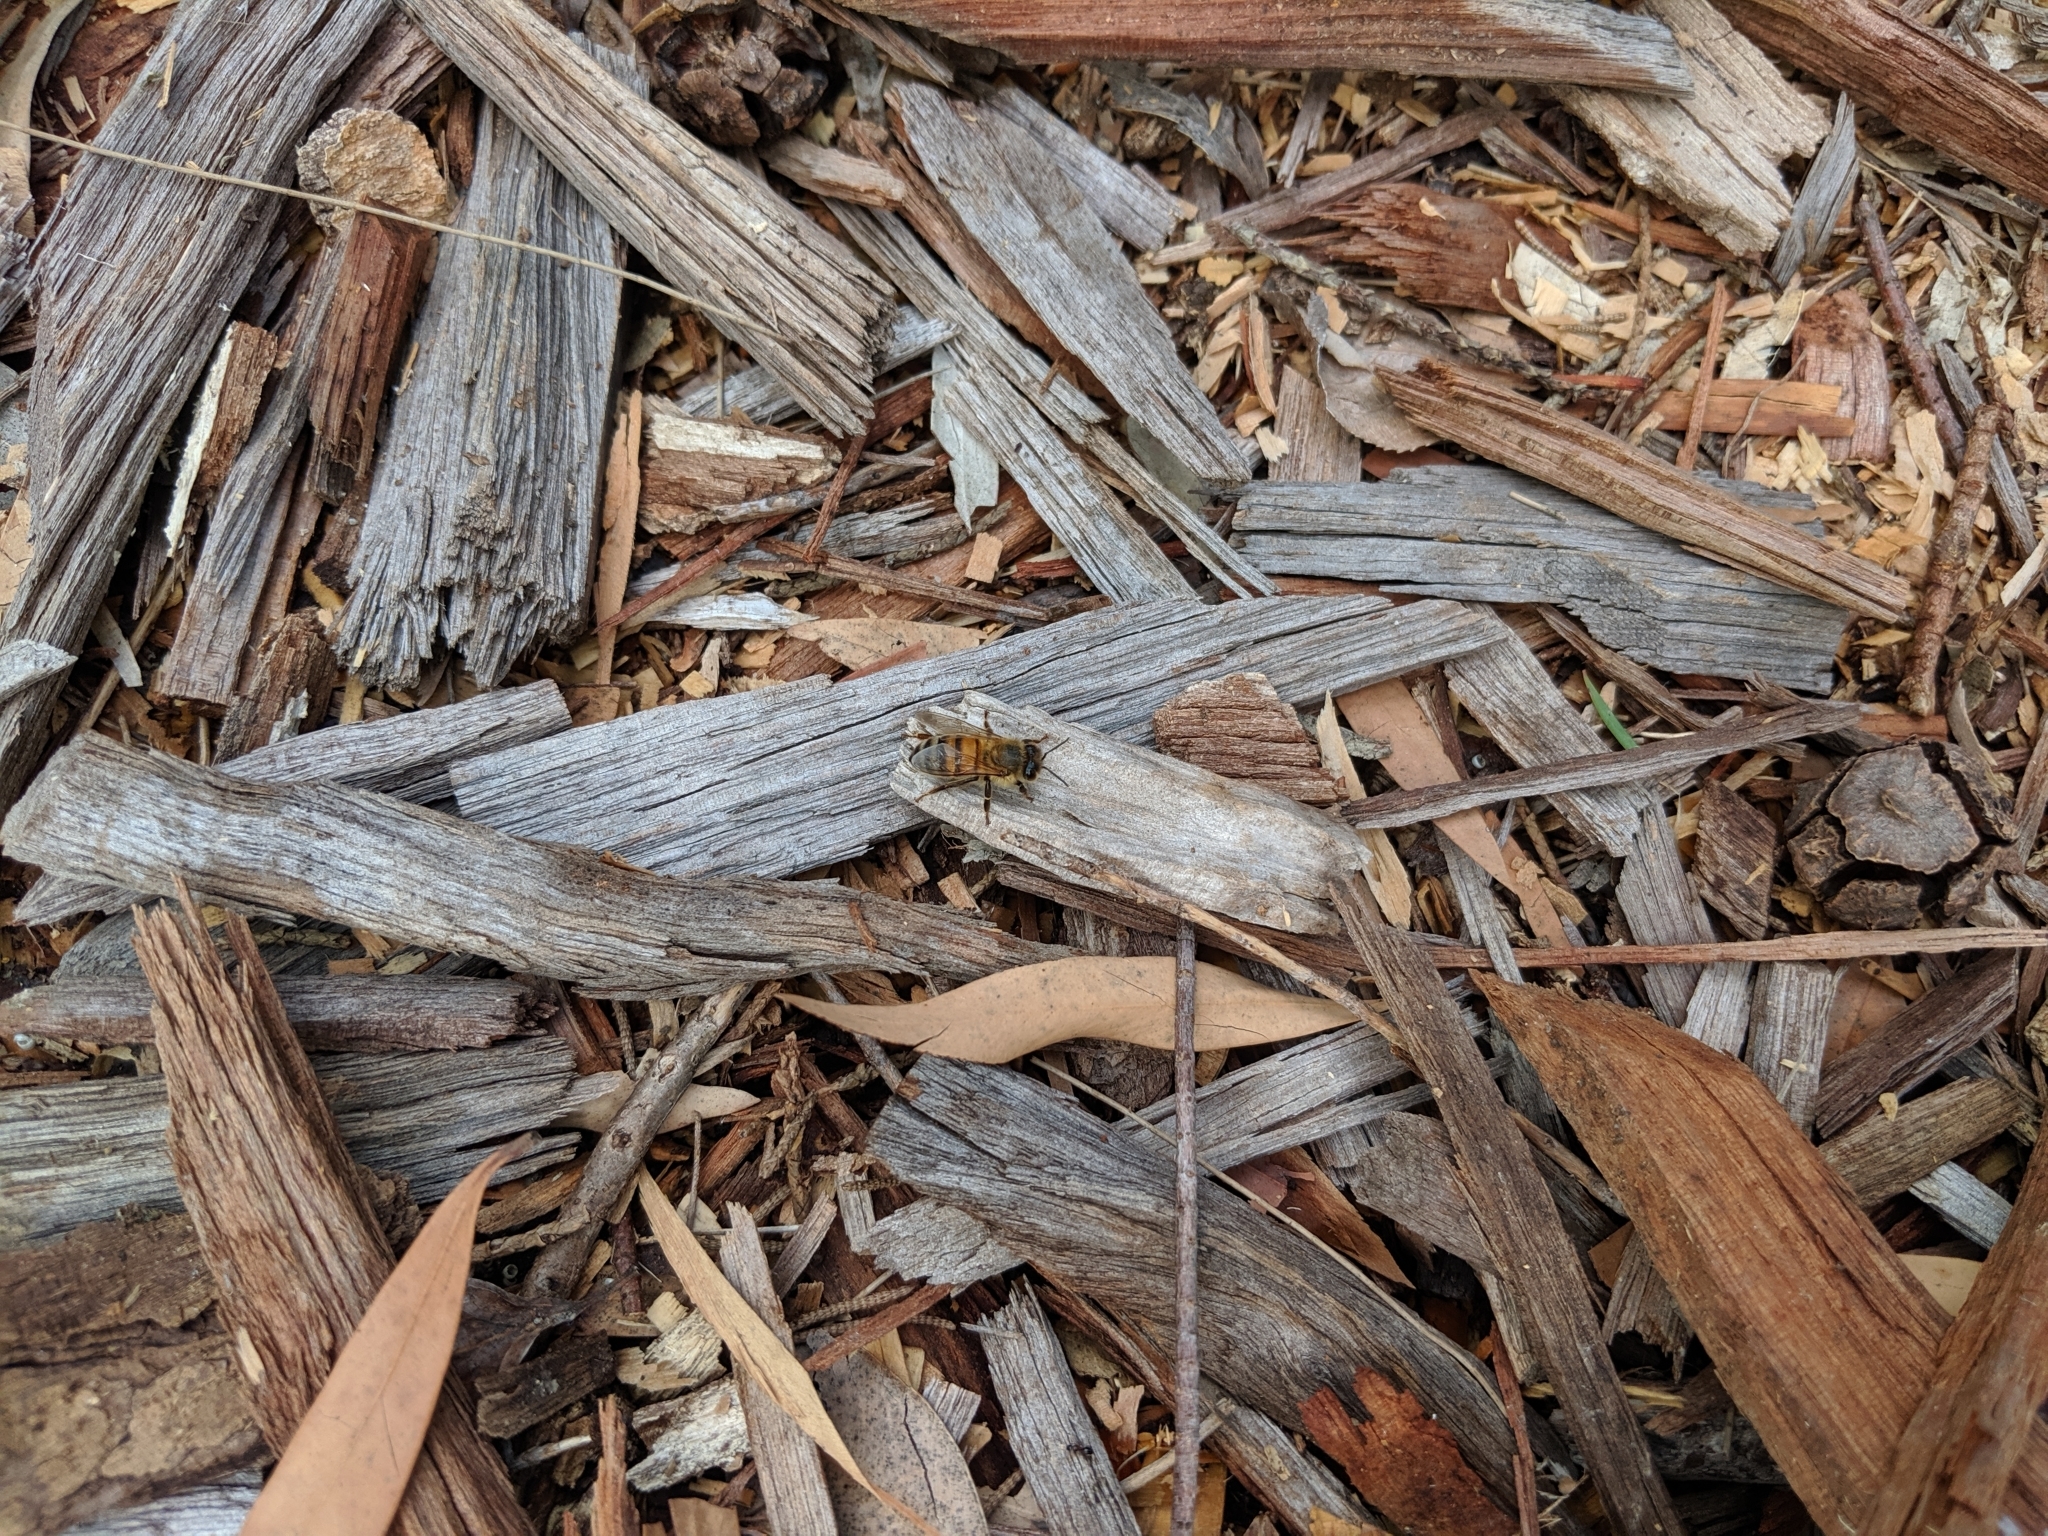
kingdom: Animalia
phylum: Arthropoda
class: Insecta
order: Hymenoptera
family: Apidae
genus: Apis
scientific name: Apis mellifera
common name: Honey bee
